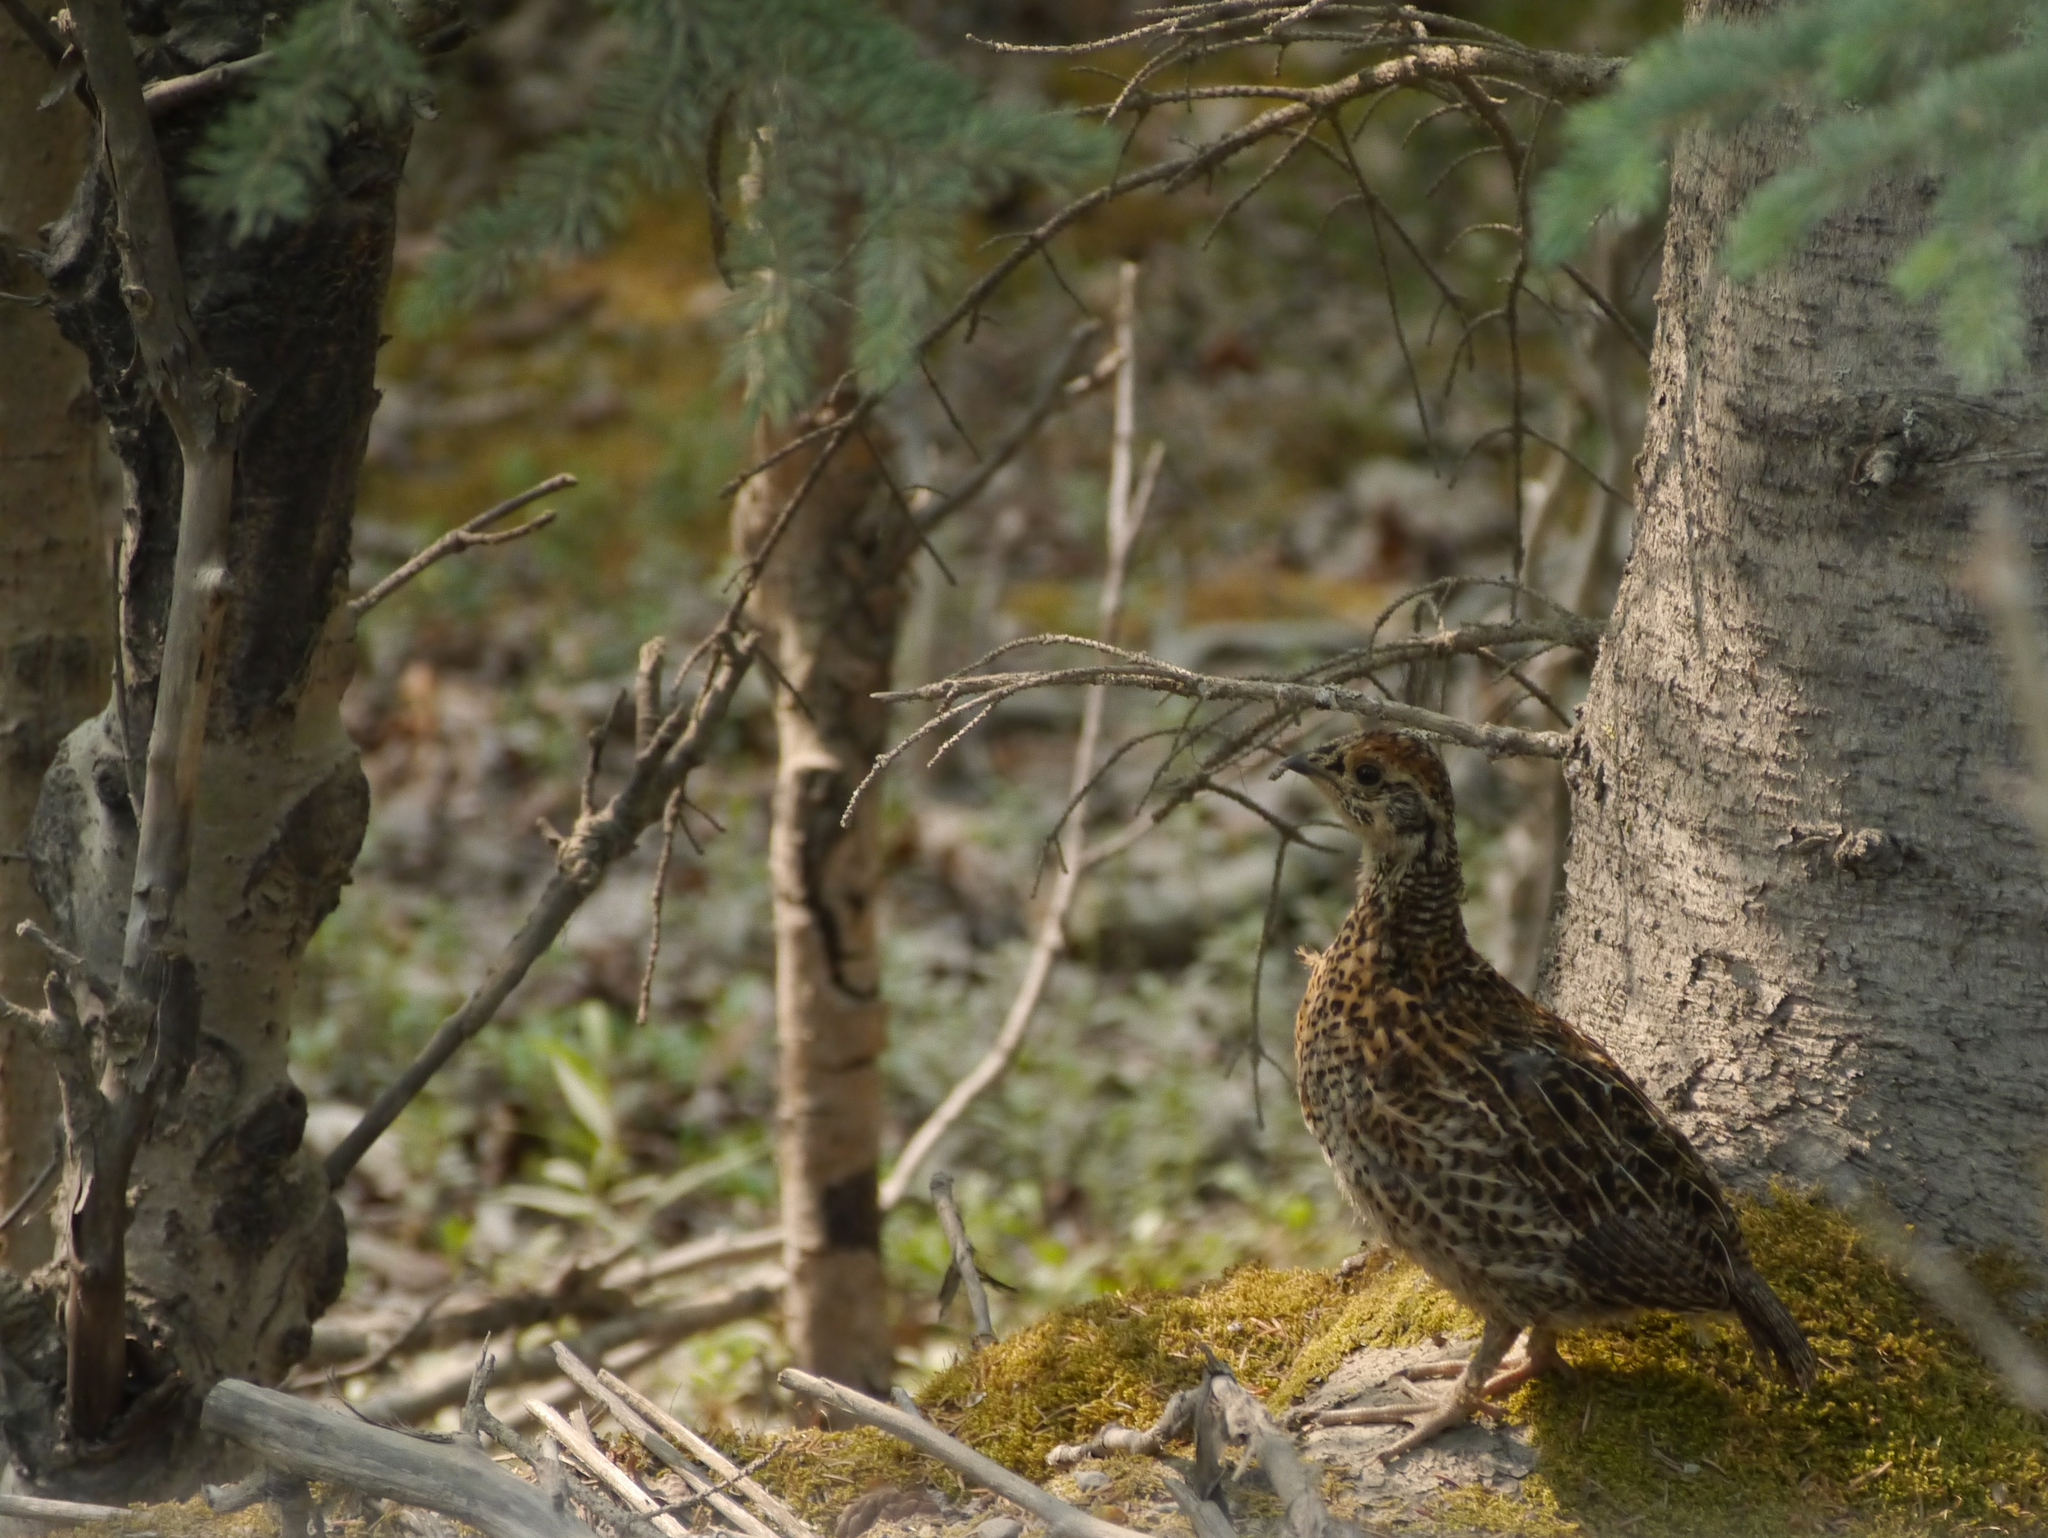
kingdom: Animalia
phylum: Chordata
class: Aves
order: Galliformes
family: Phasianidae
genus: Canachites
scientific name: Canachites canadensis
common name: Spruce grouse
